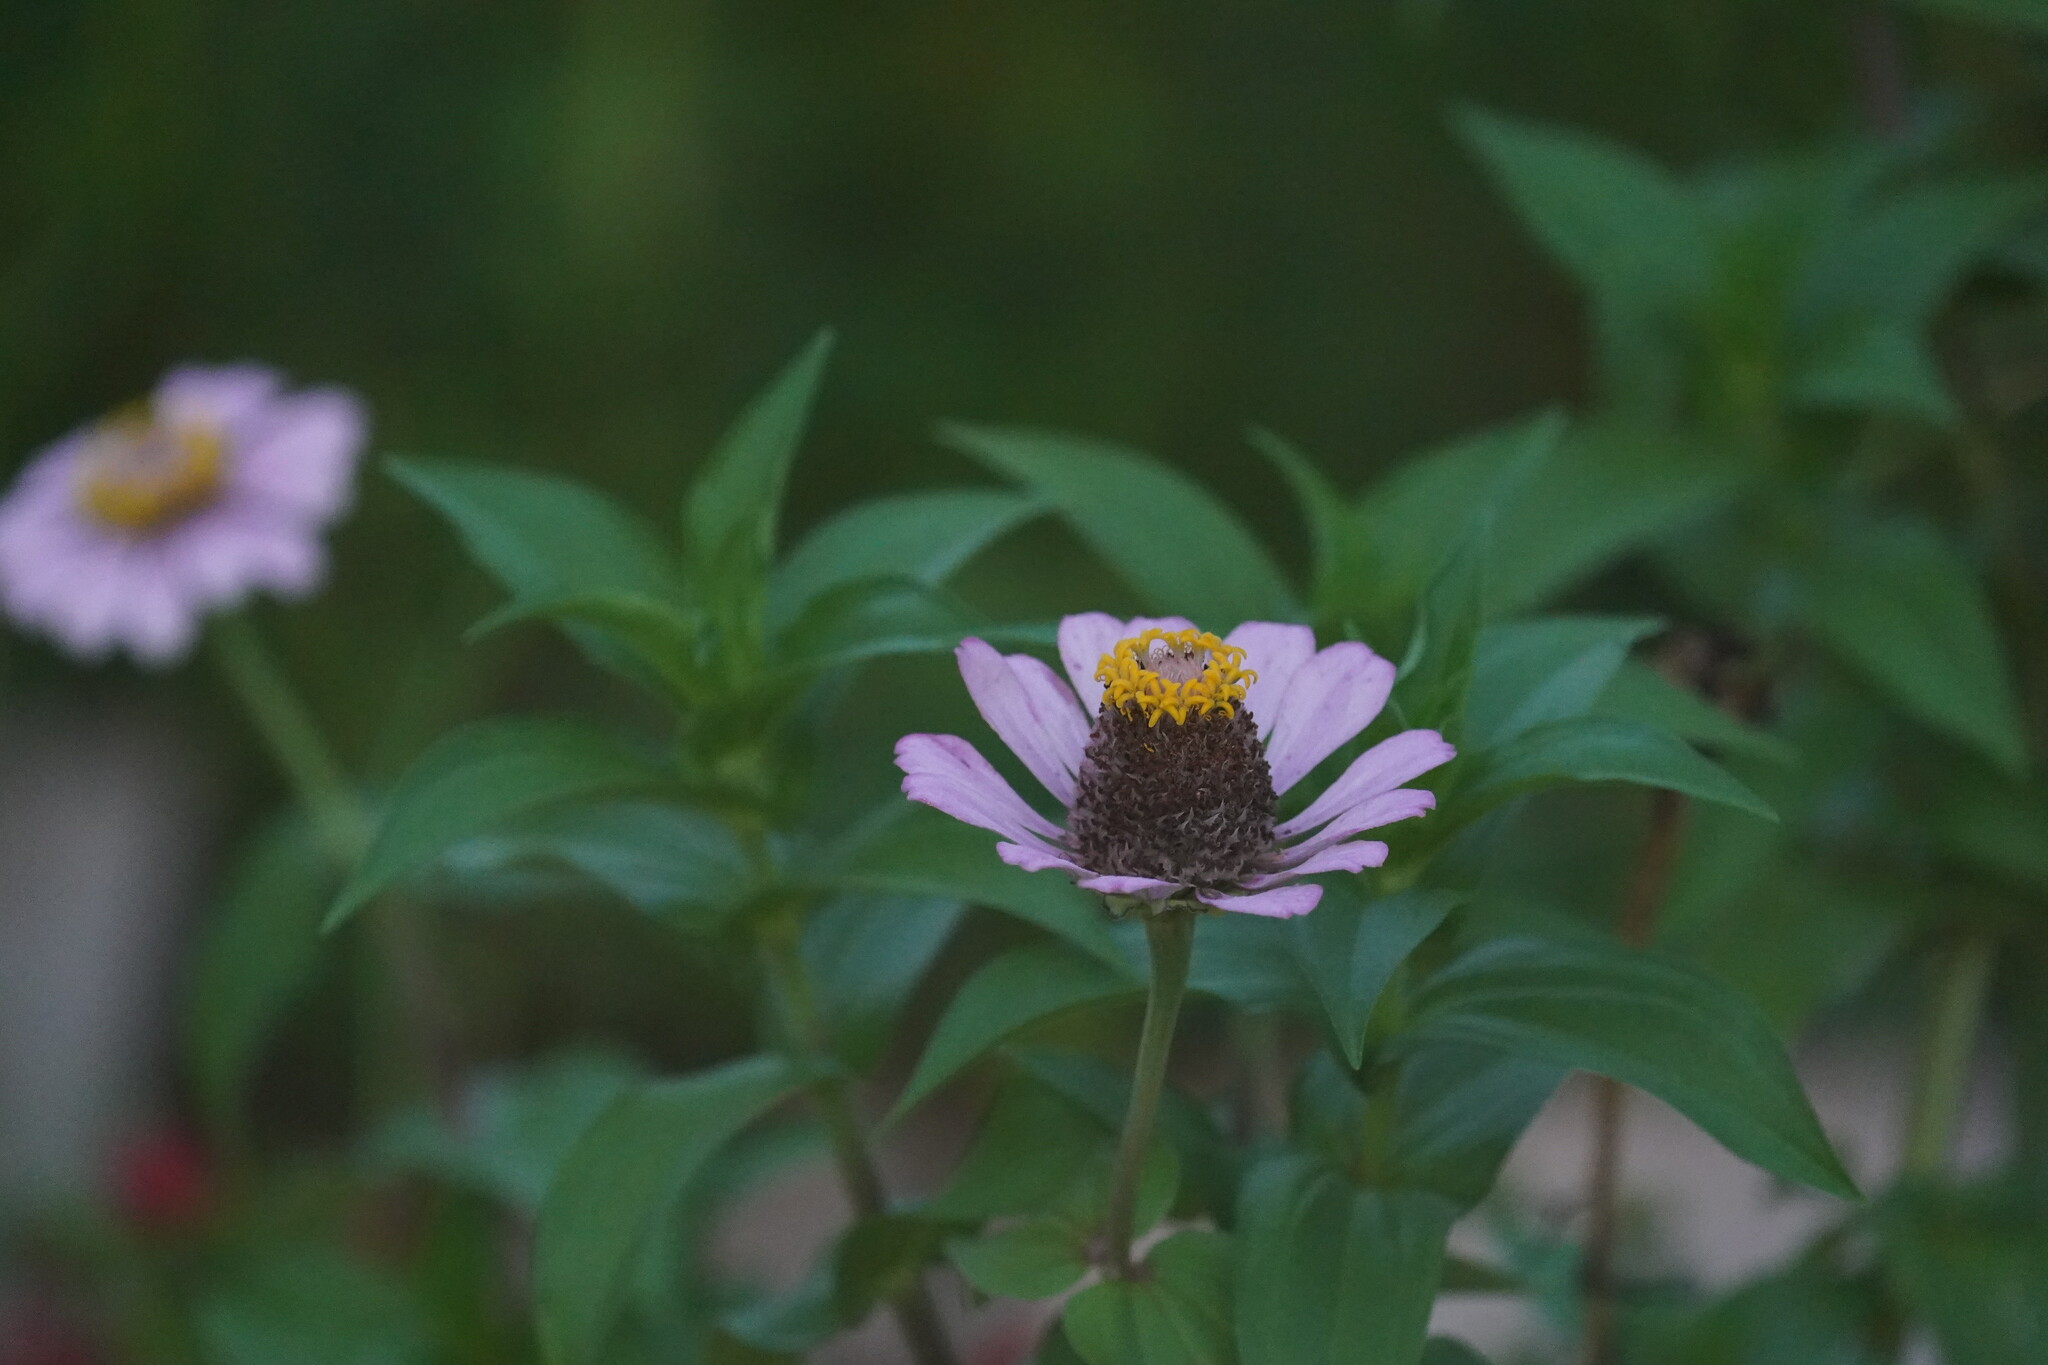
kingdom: Plantae
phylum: Tracheophyta
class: Magnoliopsida
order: Asterales
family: Asteraceae
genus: Zinnia
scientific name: Zinnia elegans
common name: Youth-and-age
